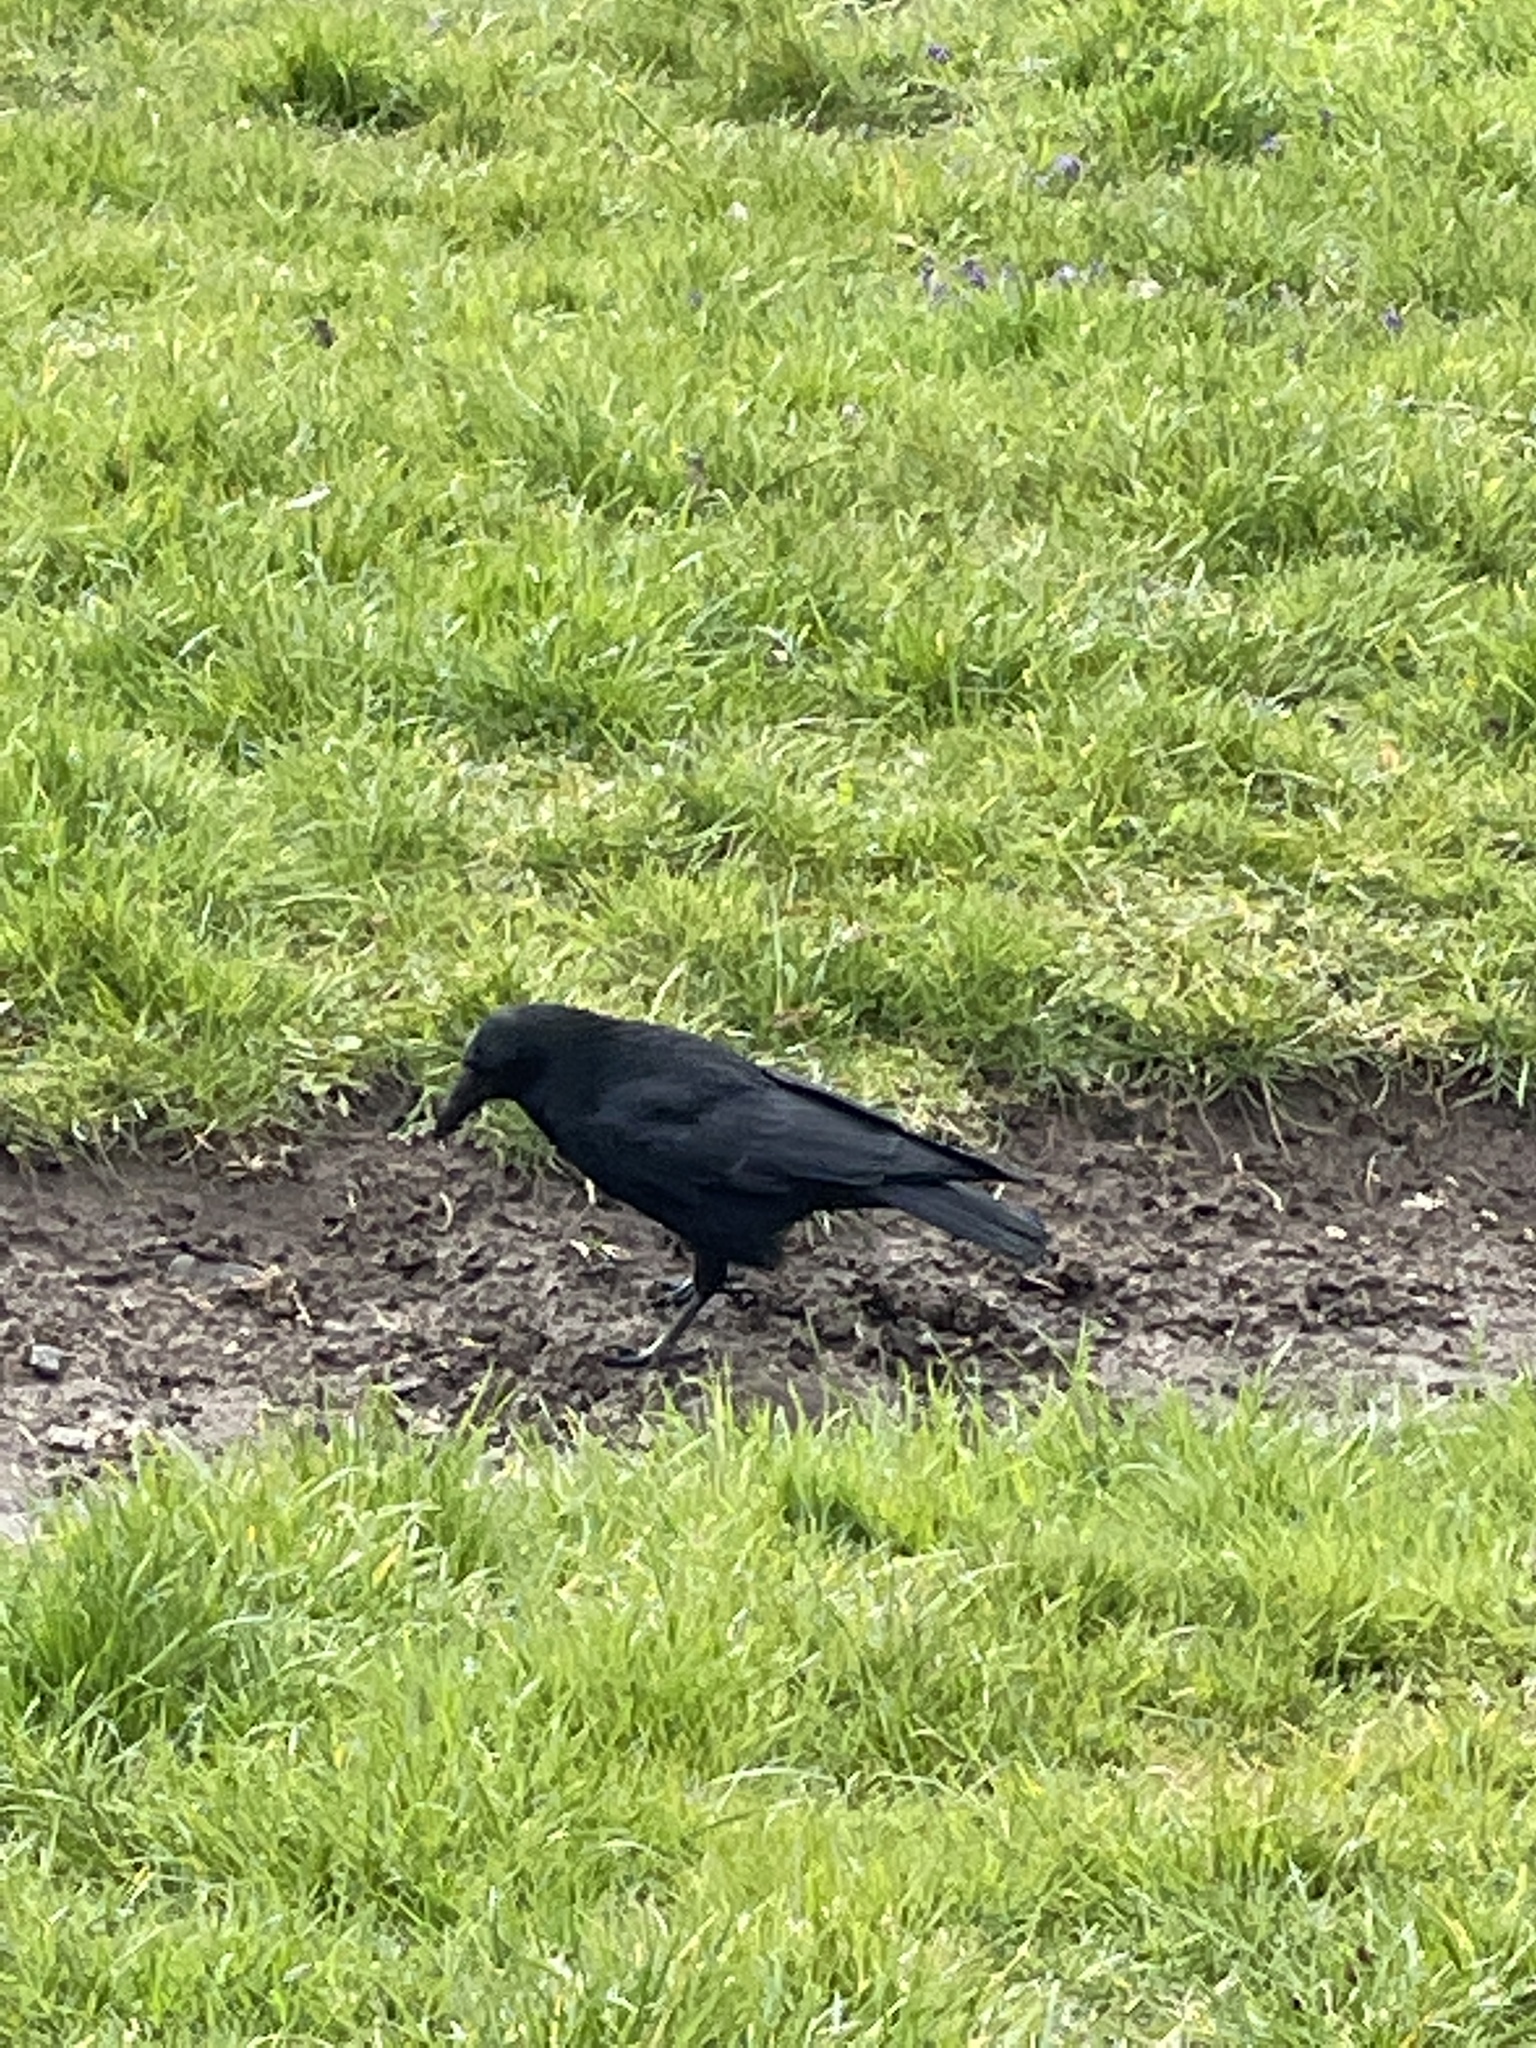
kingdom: Animalia
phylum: Chordata
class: Aves
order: Passeriformes
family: Corvidae
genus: Corvus
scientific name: Corvus corone
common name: Carrion crow
